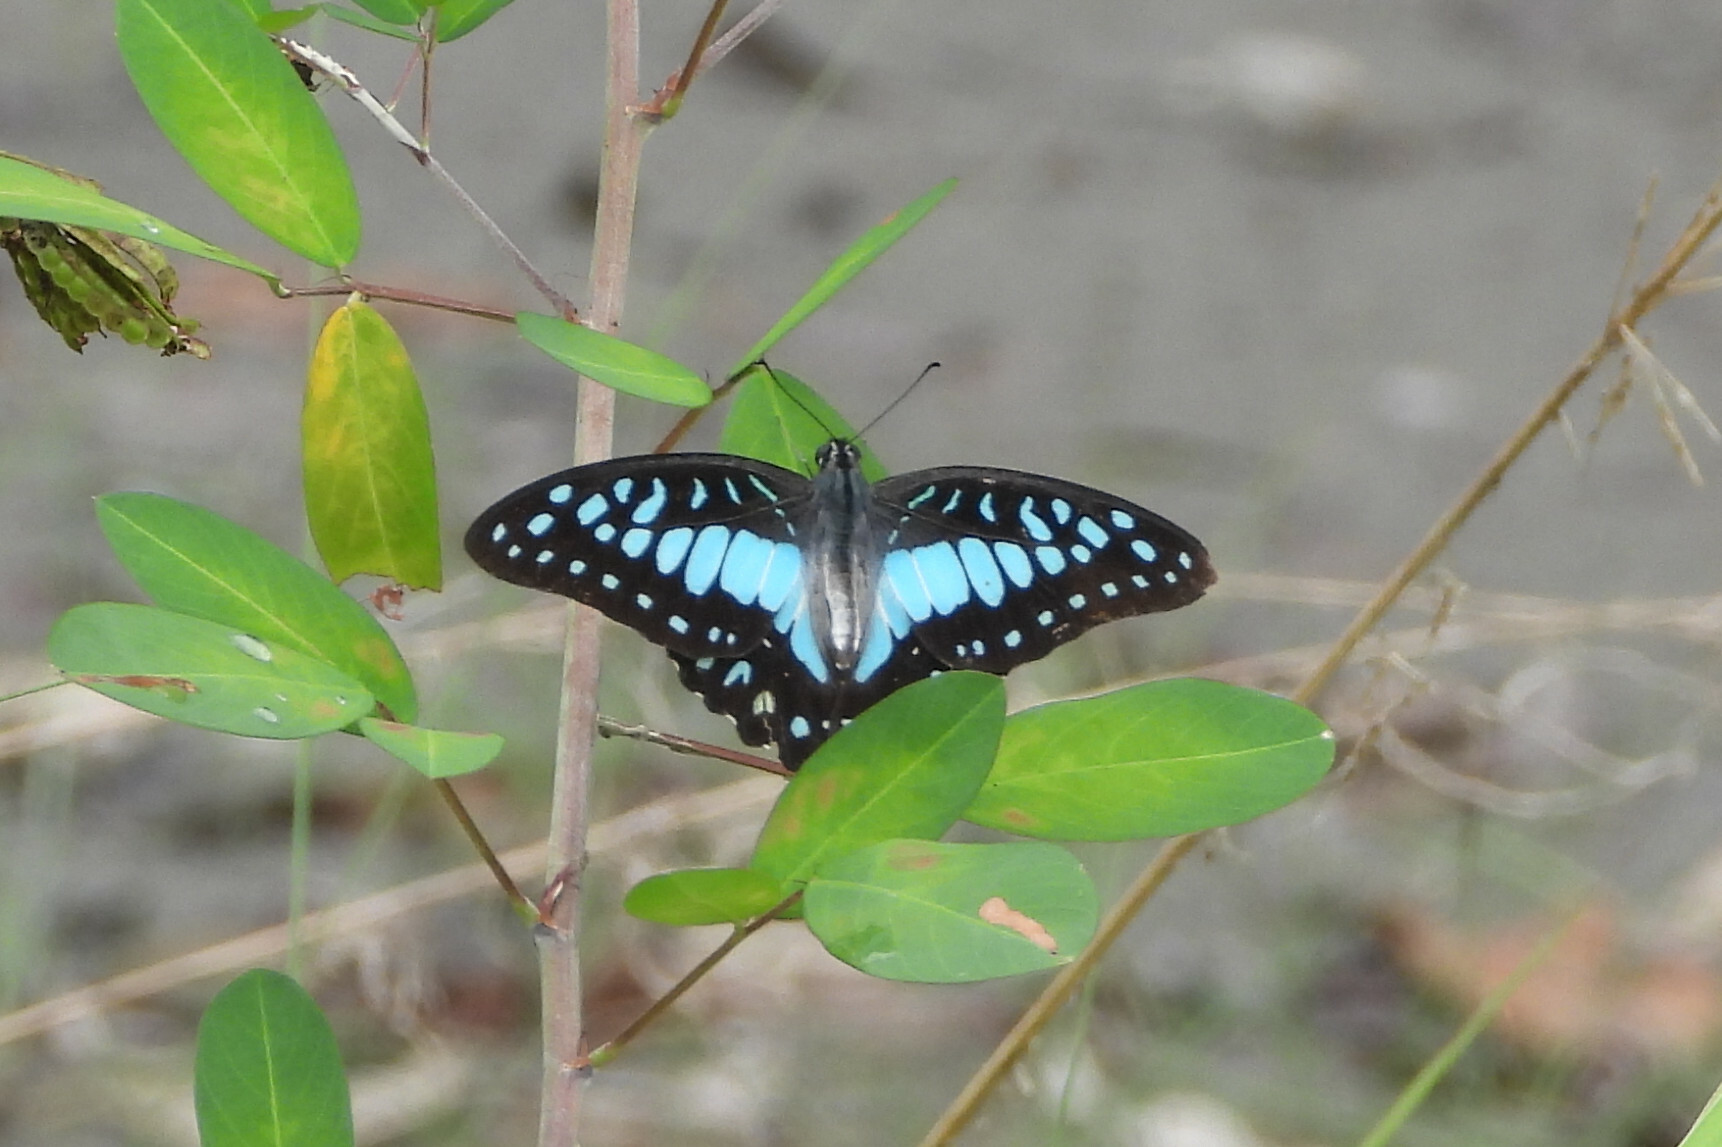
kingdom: Animalia
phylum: Arthropoda
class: Insecta
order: Lepidoptera
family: Papilionidae
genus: Graphium
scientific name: Graphium doson
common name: Common jay
